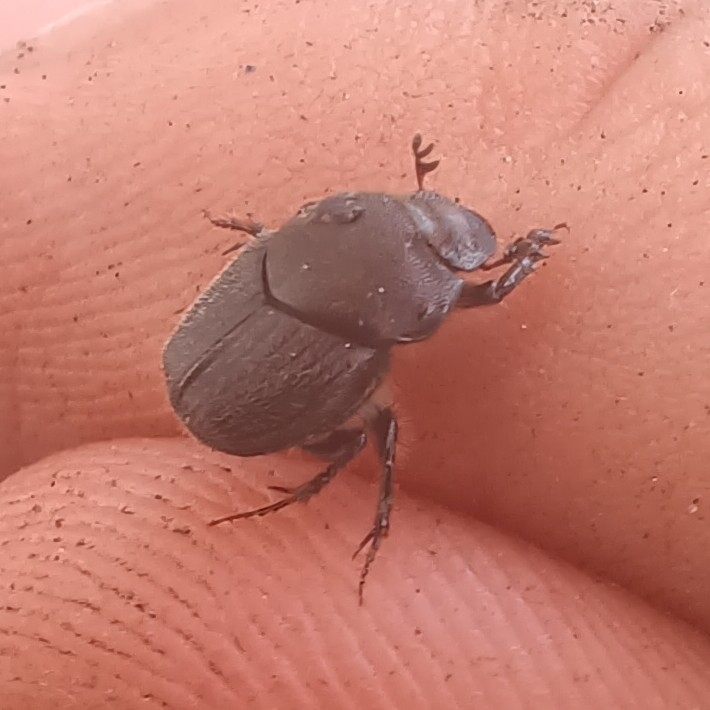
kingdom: Animalia
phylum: Arthropoda
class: Insecta
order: Coleoptera
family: Scarabaeidae
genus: Onthophagus
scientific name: Onthophagus hecate
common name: Scooped scarab
